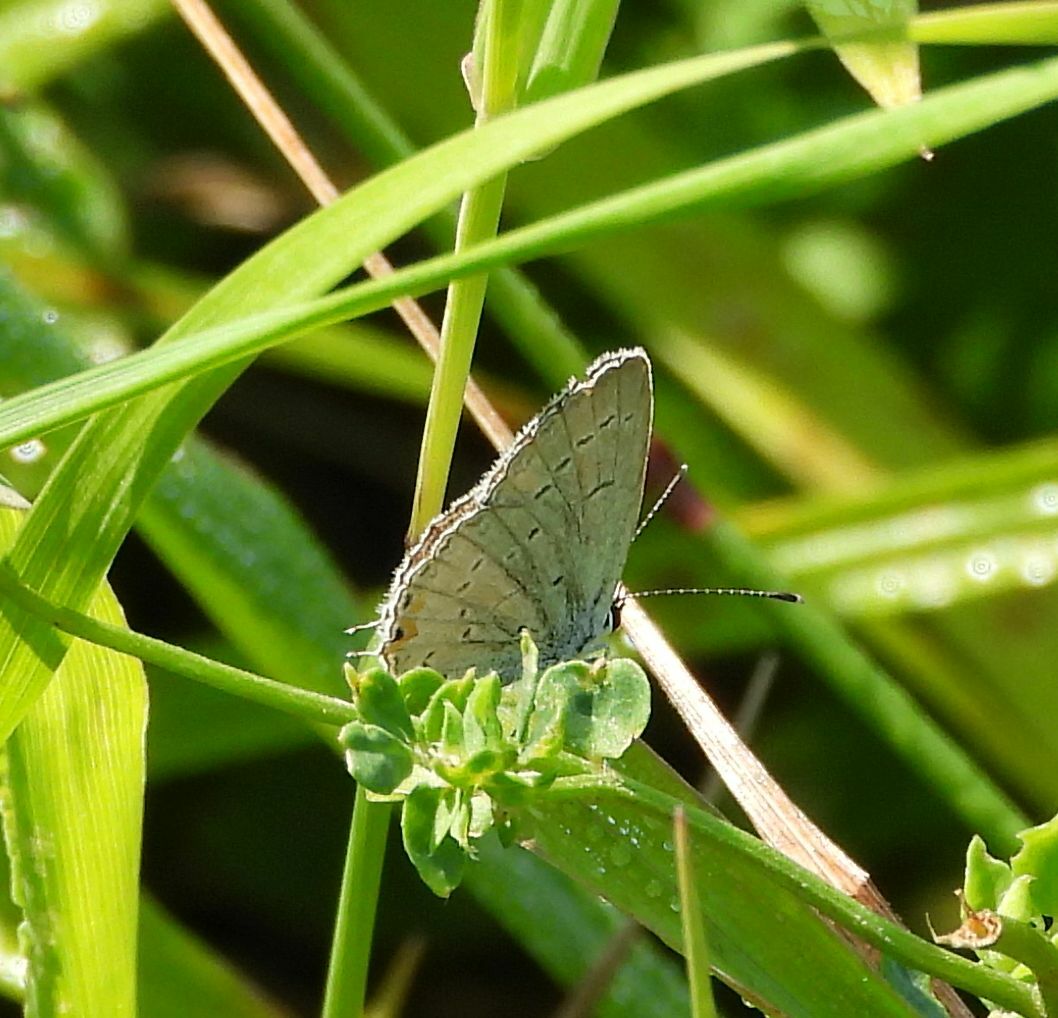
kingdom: Animalia
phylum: Arthropoda
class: Insecta
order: Lepidoptera
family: Lycaenidae
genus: Elkalyce
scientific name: Elkalyce comyntas
